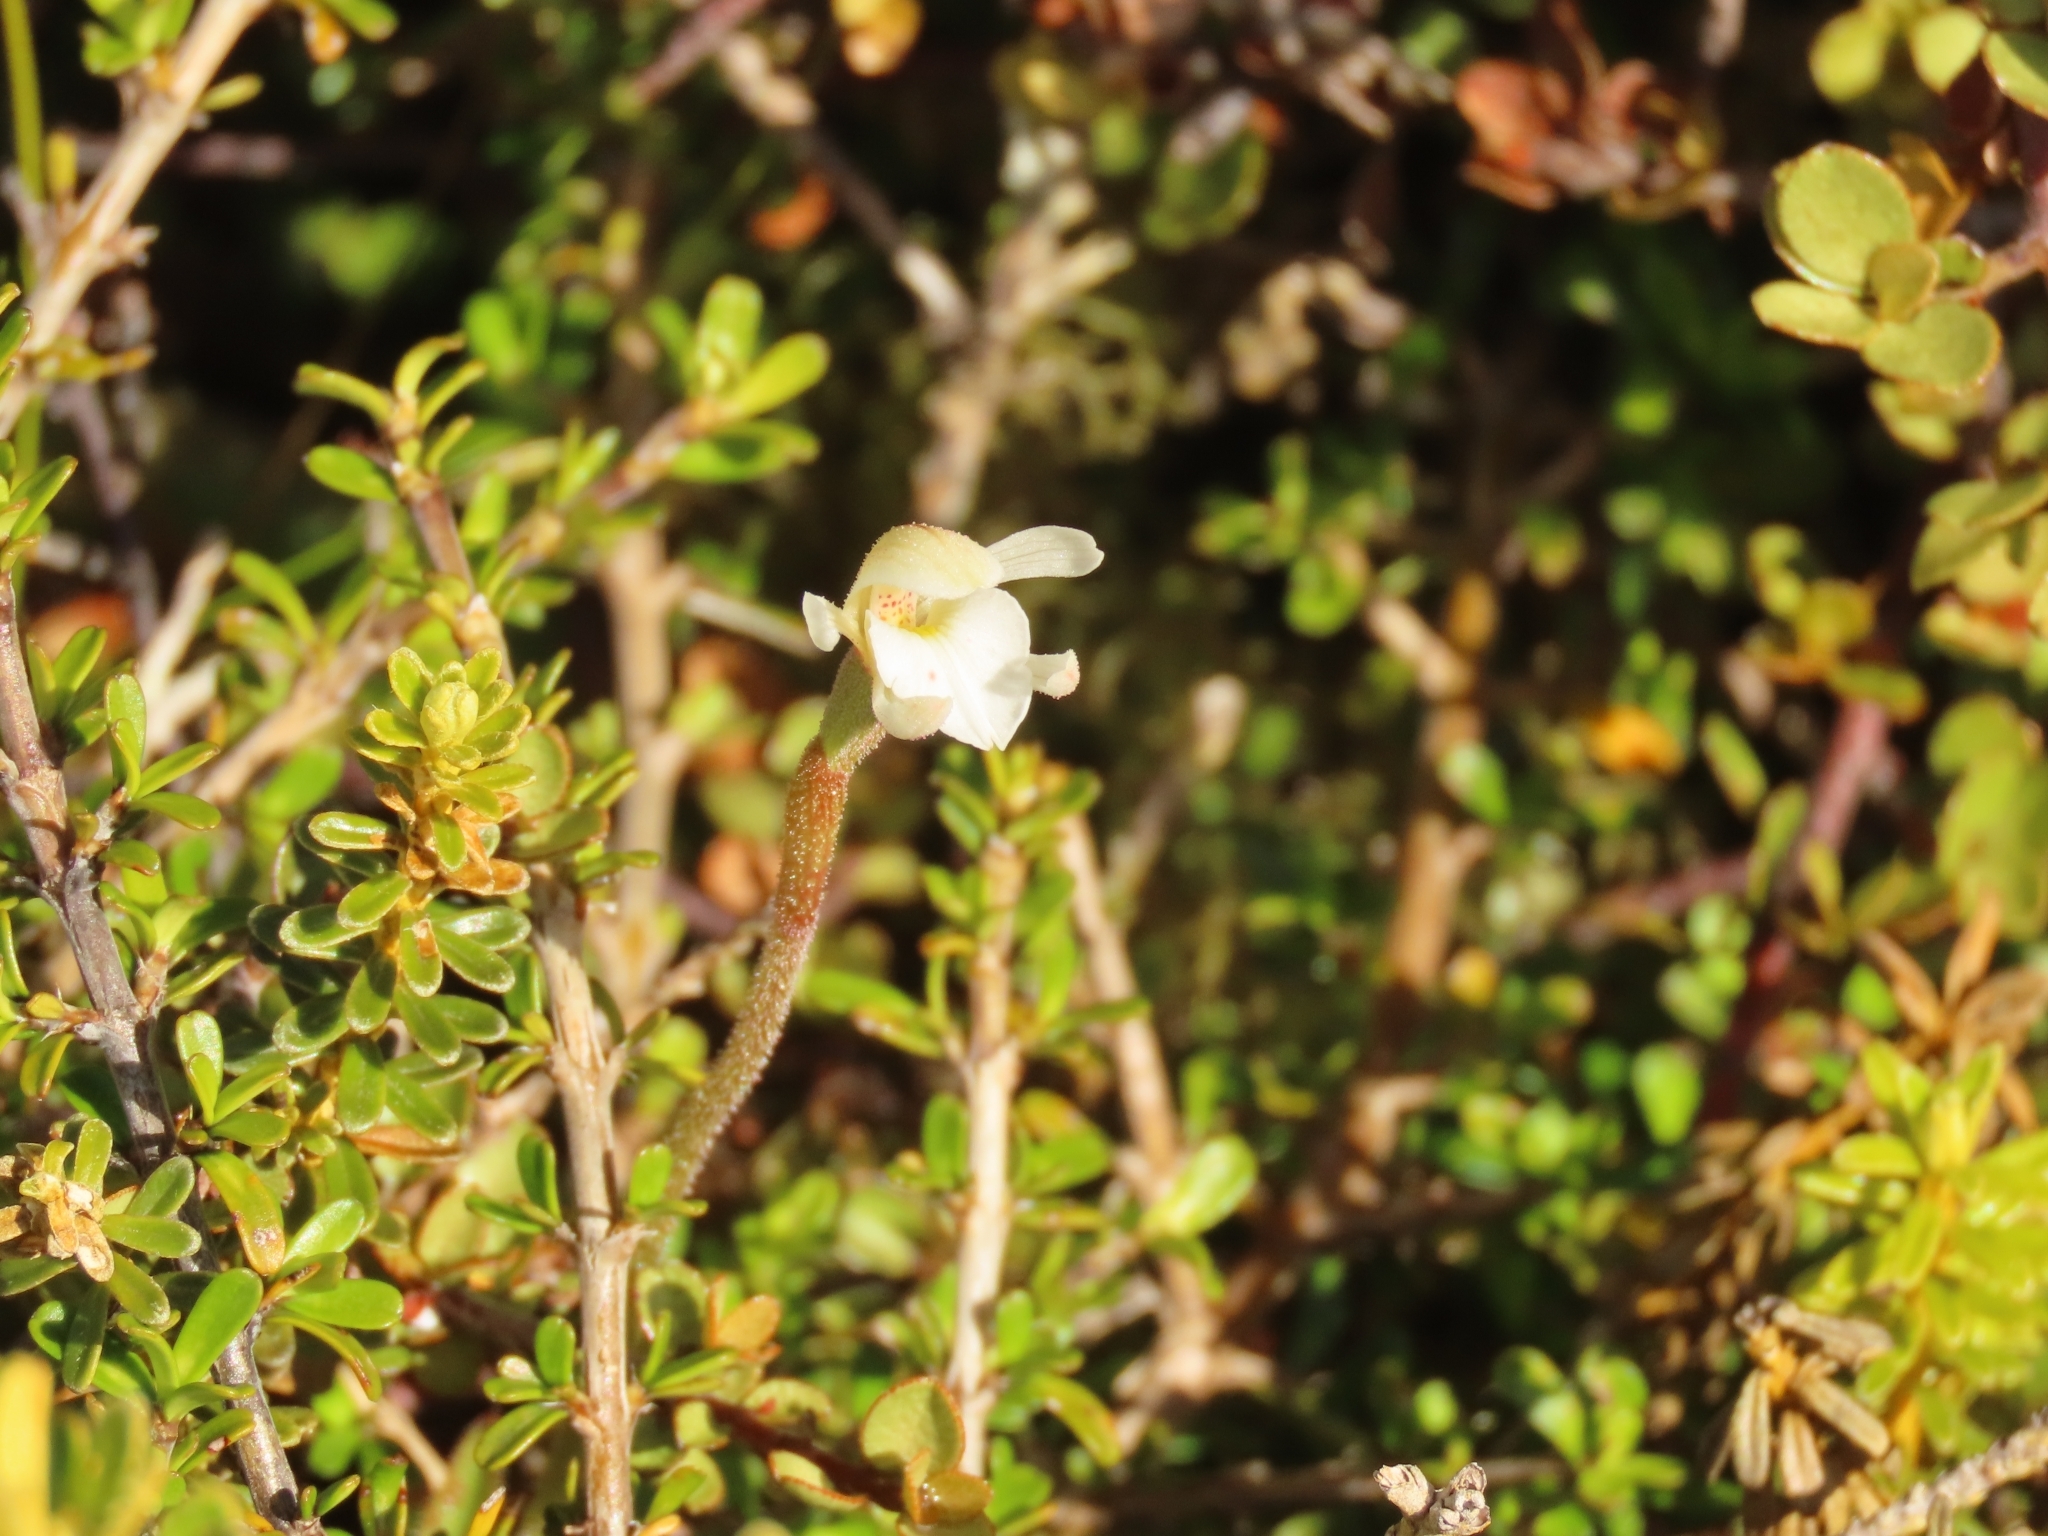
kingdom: Plantae
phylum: Tracheophyta
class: Liliopsida
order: Asparagales
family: Orchidaceae
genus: Aporostylis
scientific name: Aporostylis bifolia
